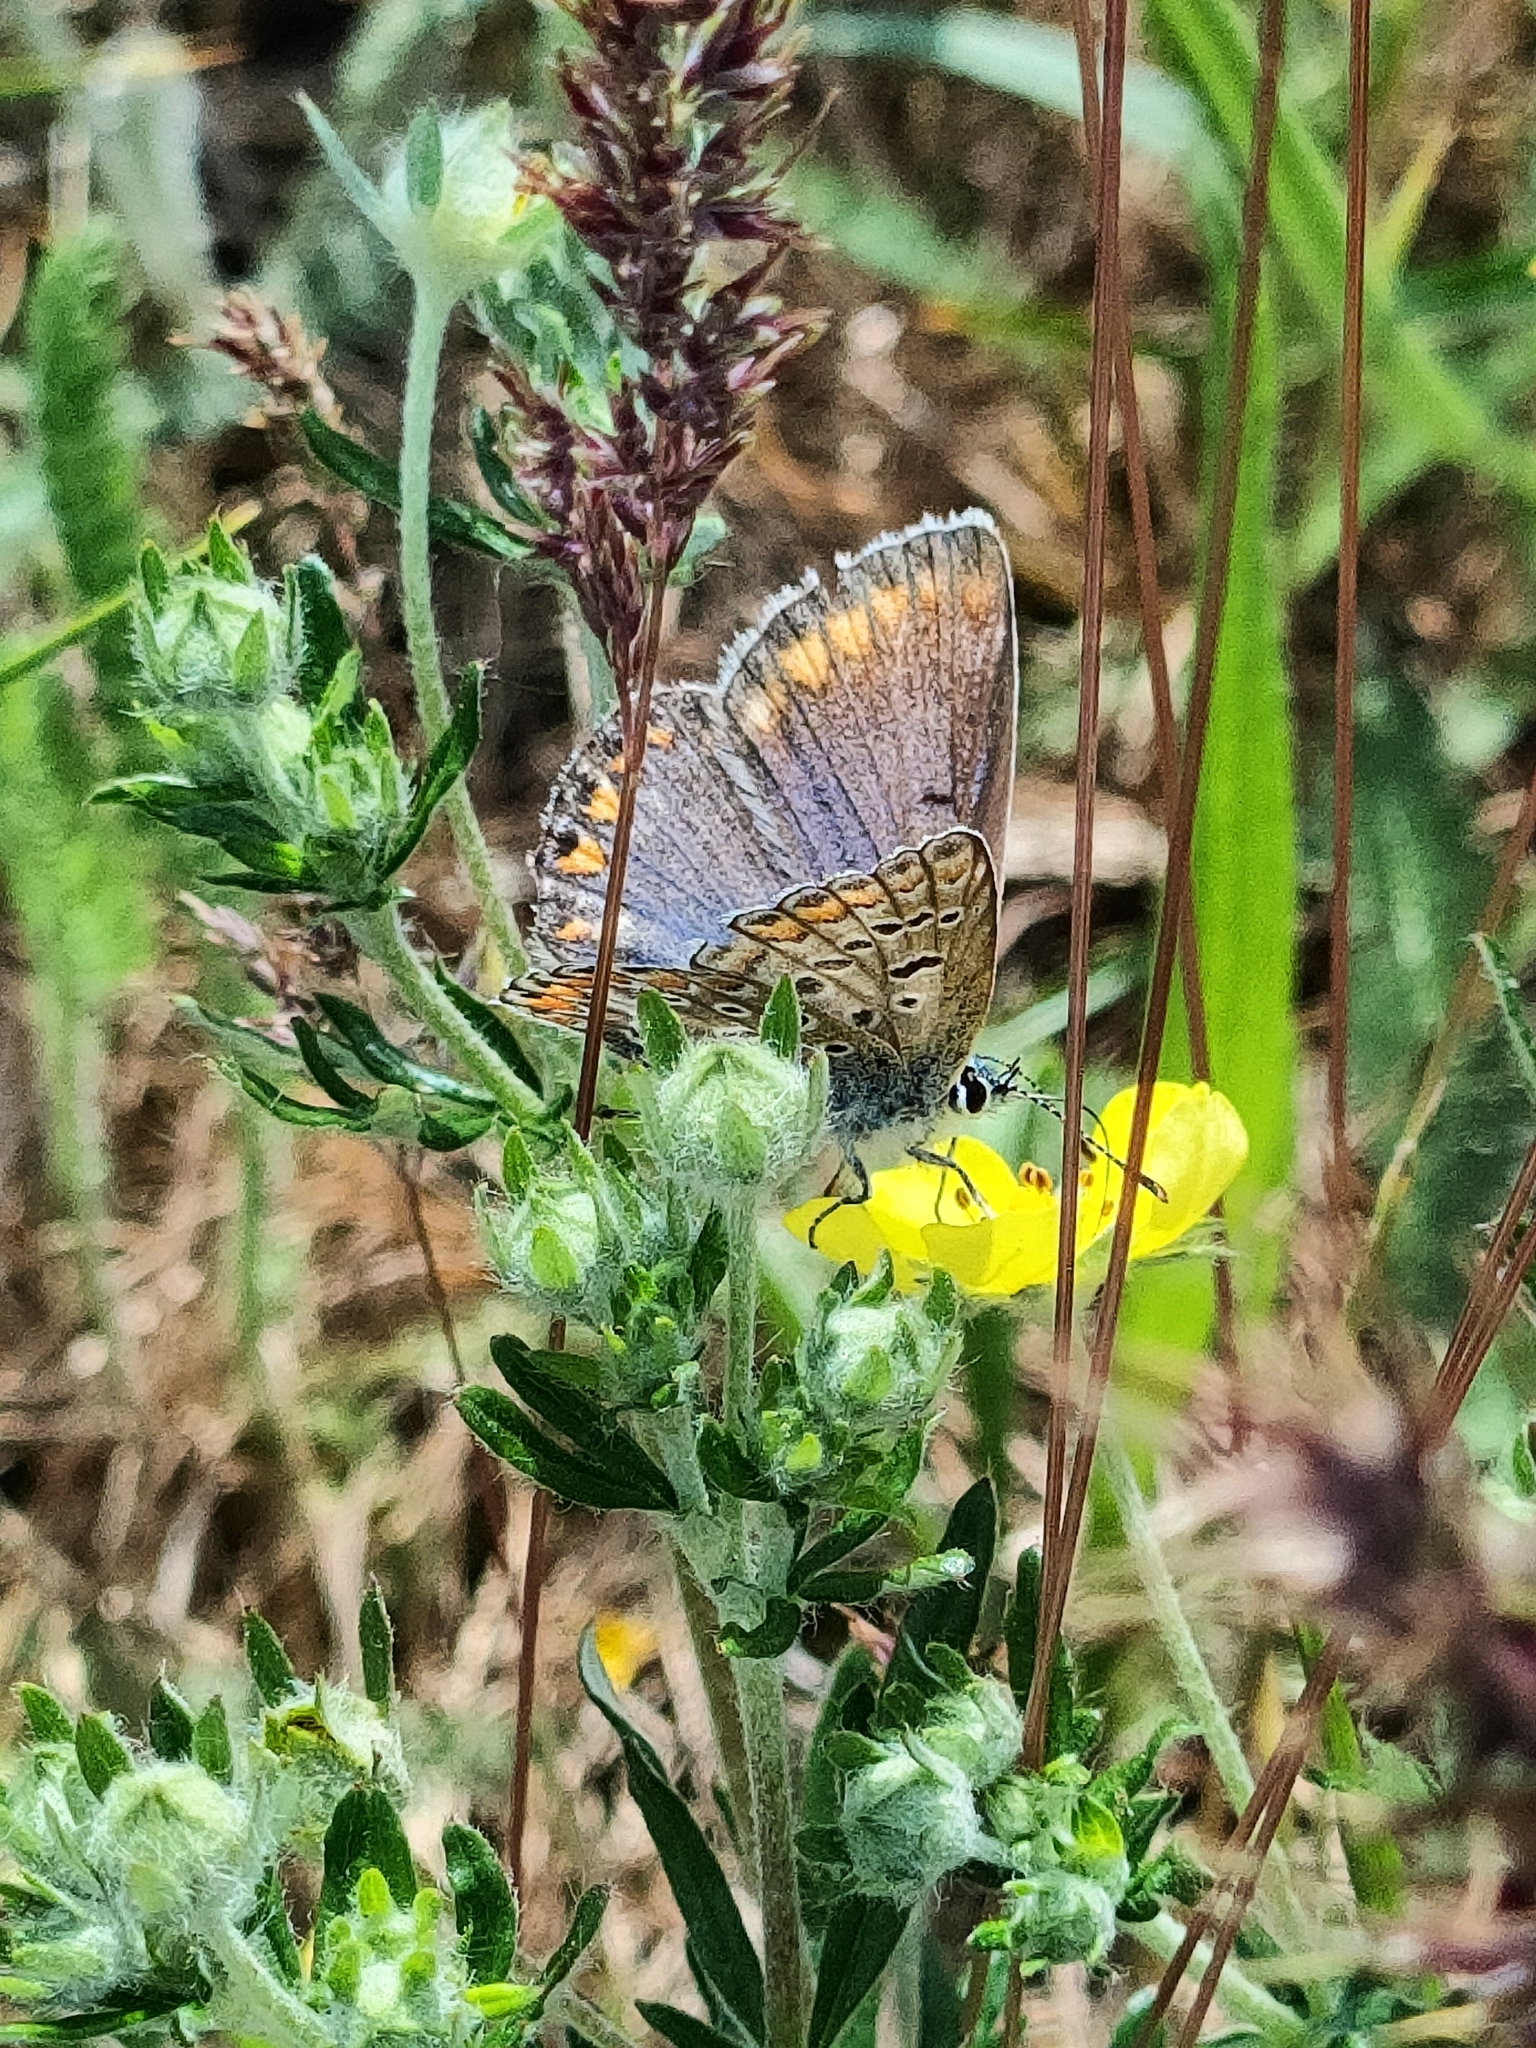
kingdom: Animalia
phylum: Arthropoda
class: Insecta
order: Lepidoptera
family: Lycaenidae
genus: Polyommatus
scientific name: Polyommatus icarus
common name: Common blue
